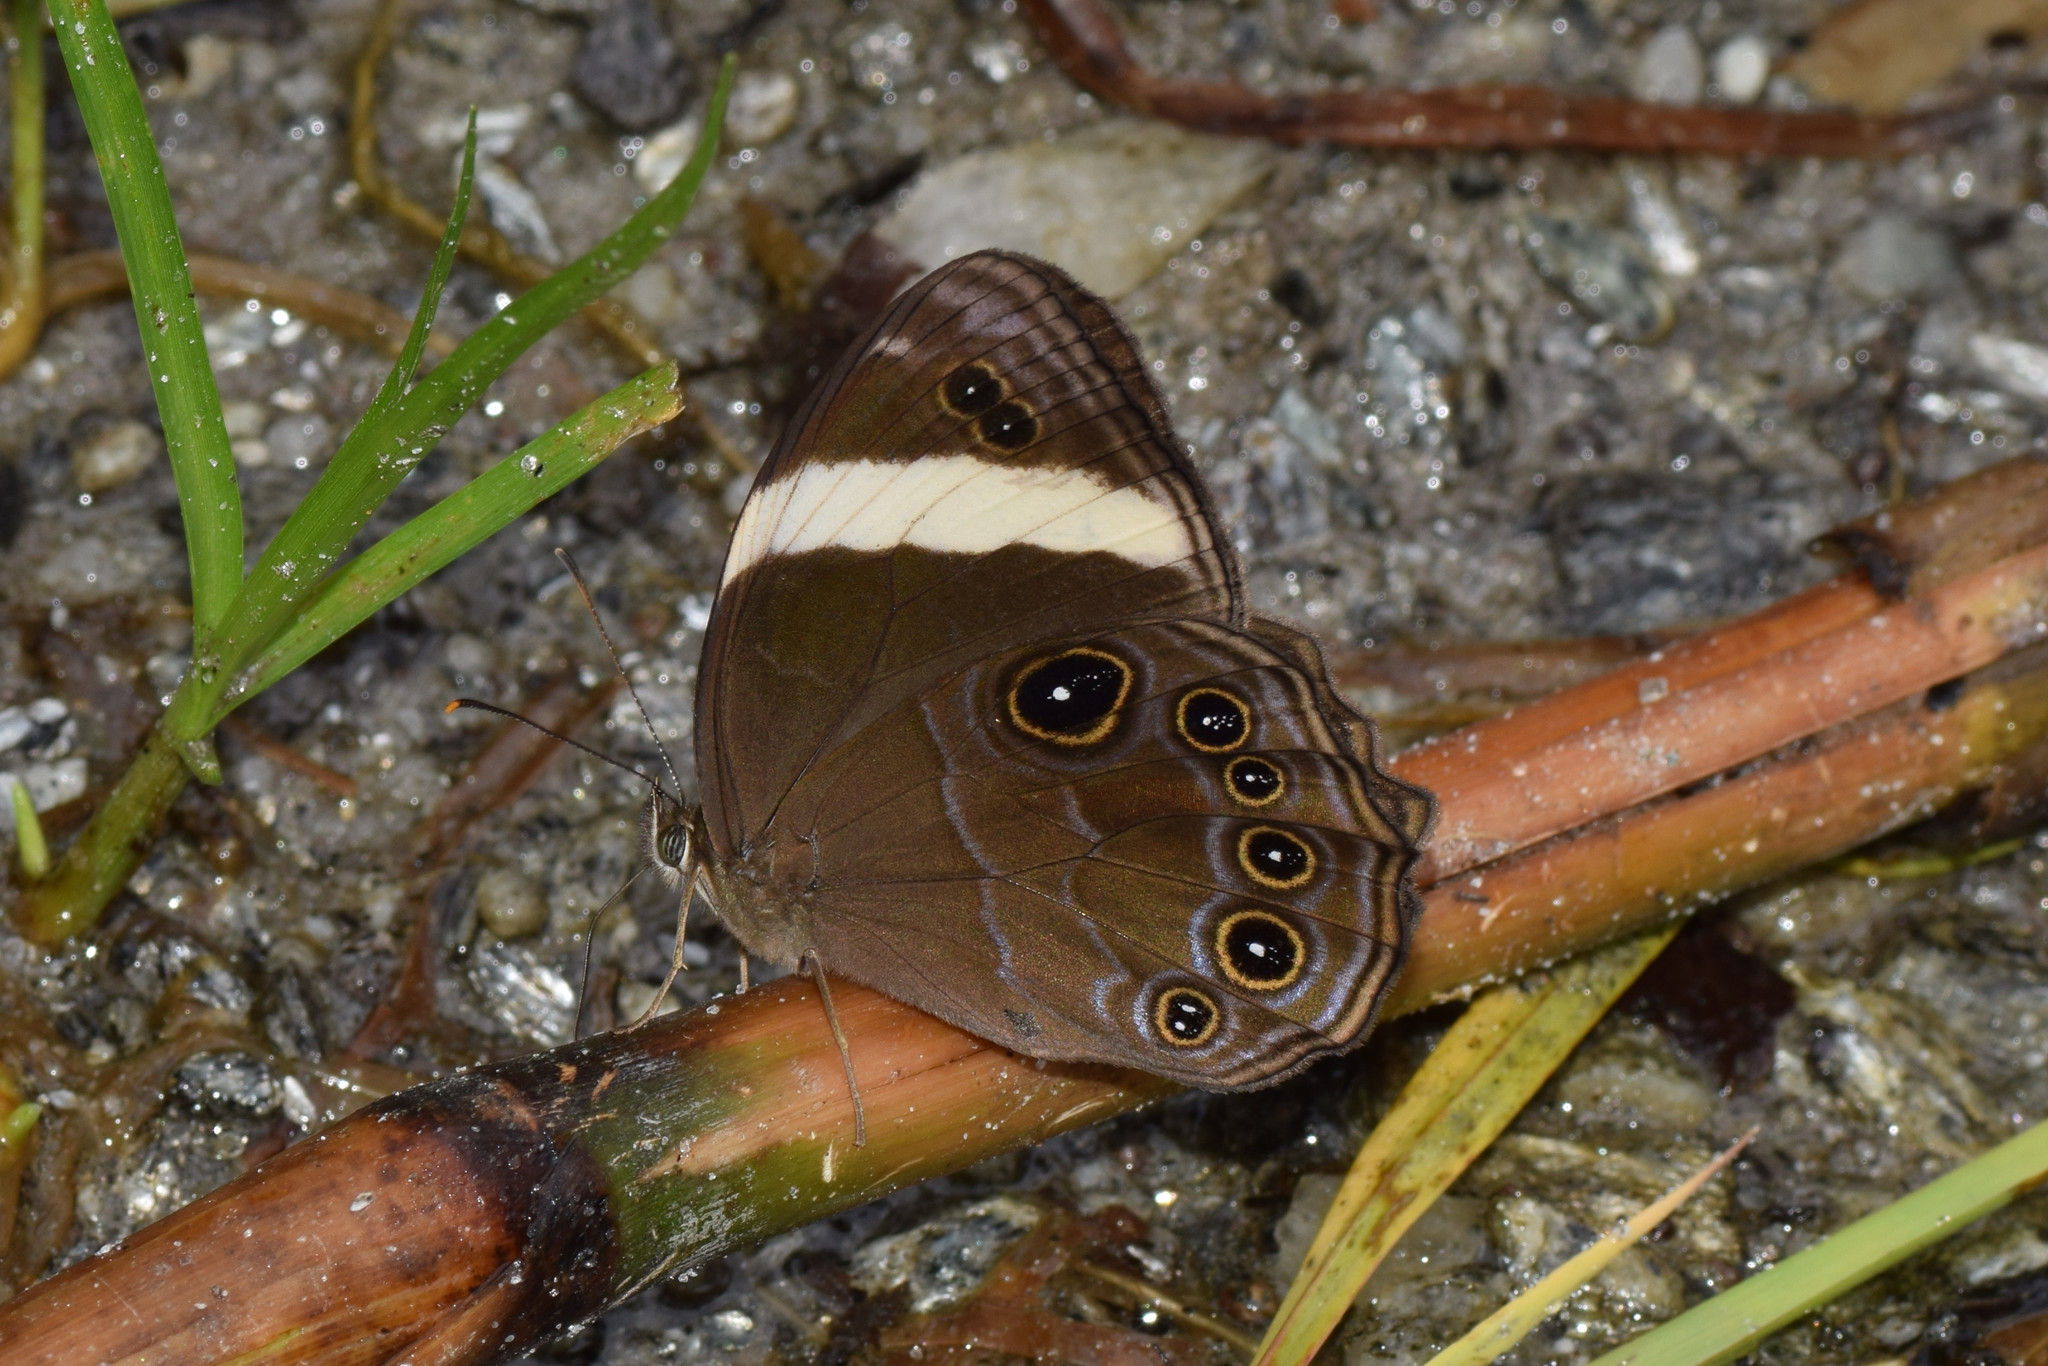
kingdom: Animalia
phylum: Arthropoda
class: Insecta
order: Lepidoptera
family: Nymphalidae
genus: Lethe
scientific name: Lethe verma
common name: Straight-banded treebrown
